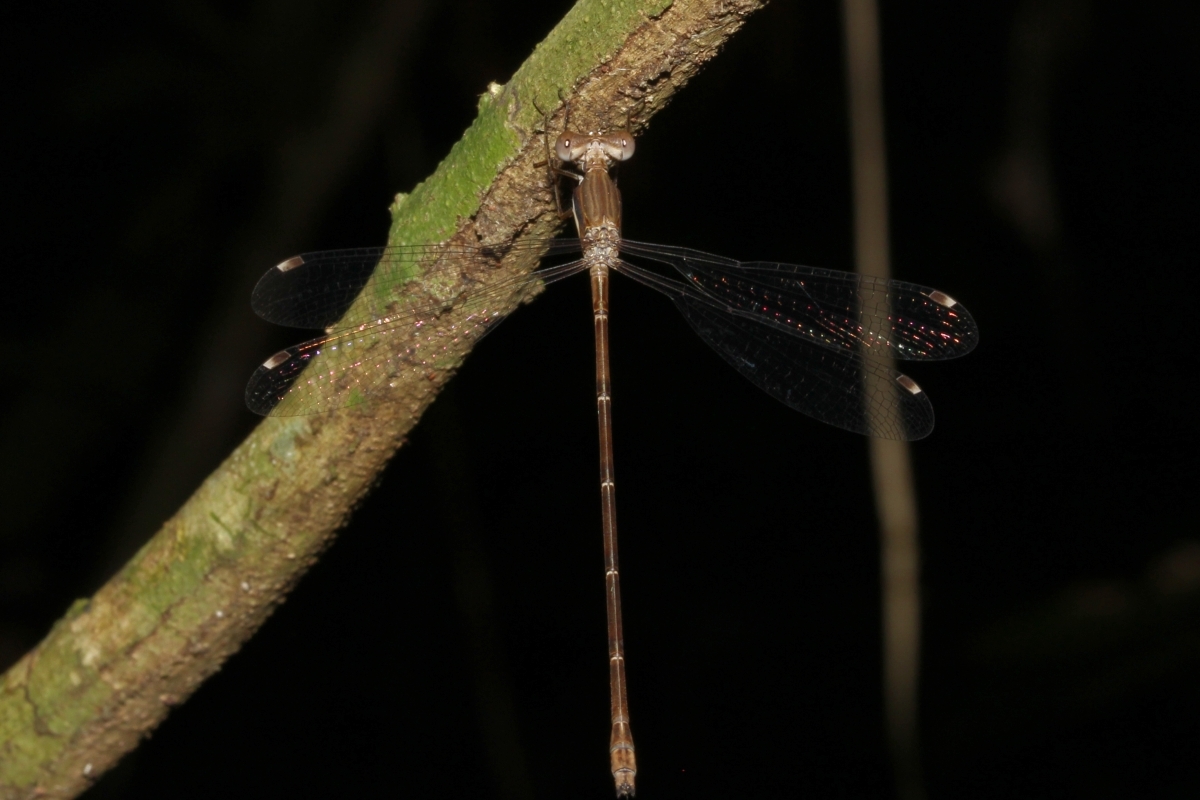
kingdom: Animalia
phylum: Arthropoda
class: Insecta
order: Odonata
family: Lestidae
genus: Lestes
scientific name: Lestes dichrostigma
